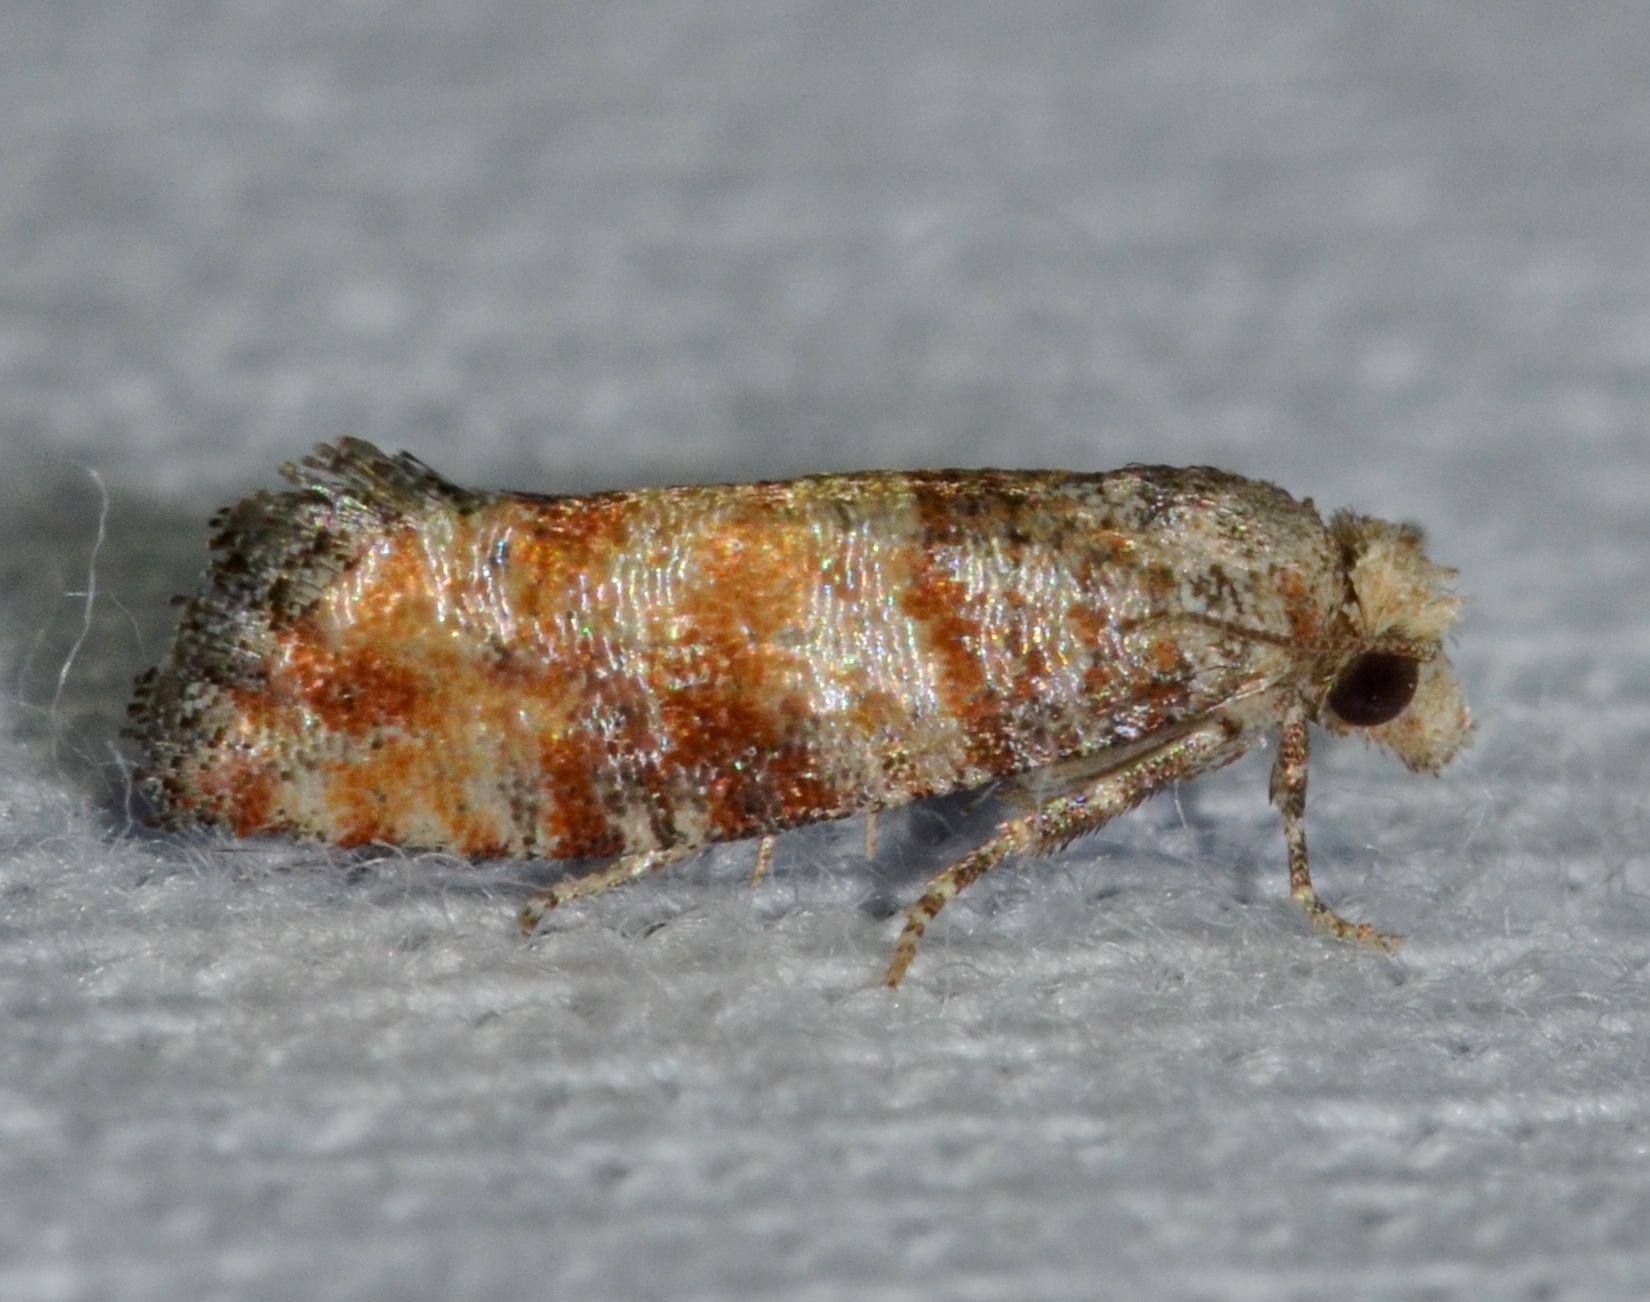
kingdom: Animalia
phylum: Arthropoda
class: Insecta
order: Lepidoptera
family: Tortricidae
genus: Rhyacionia
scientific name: Rhyacionia frustrana
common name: Nantucket pine tip moth
